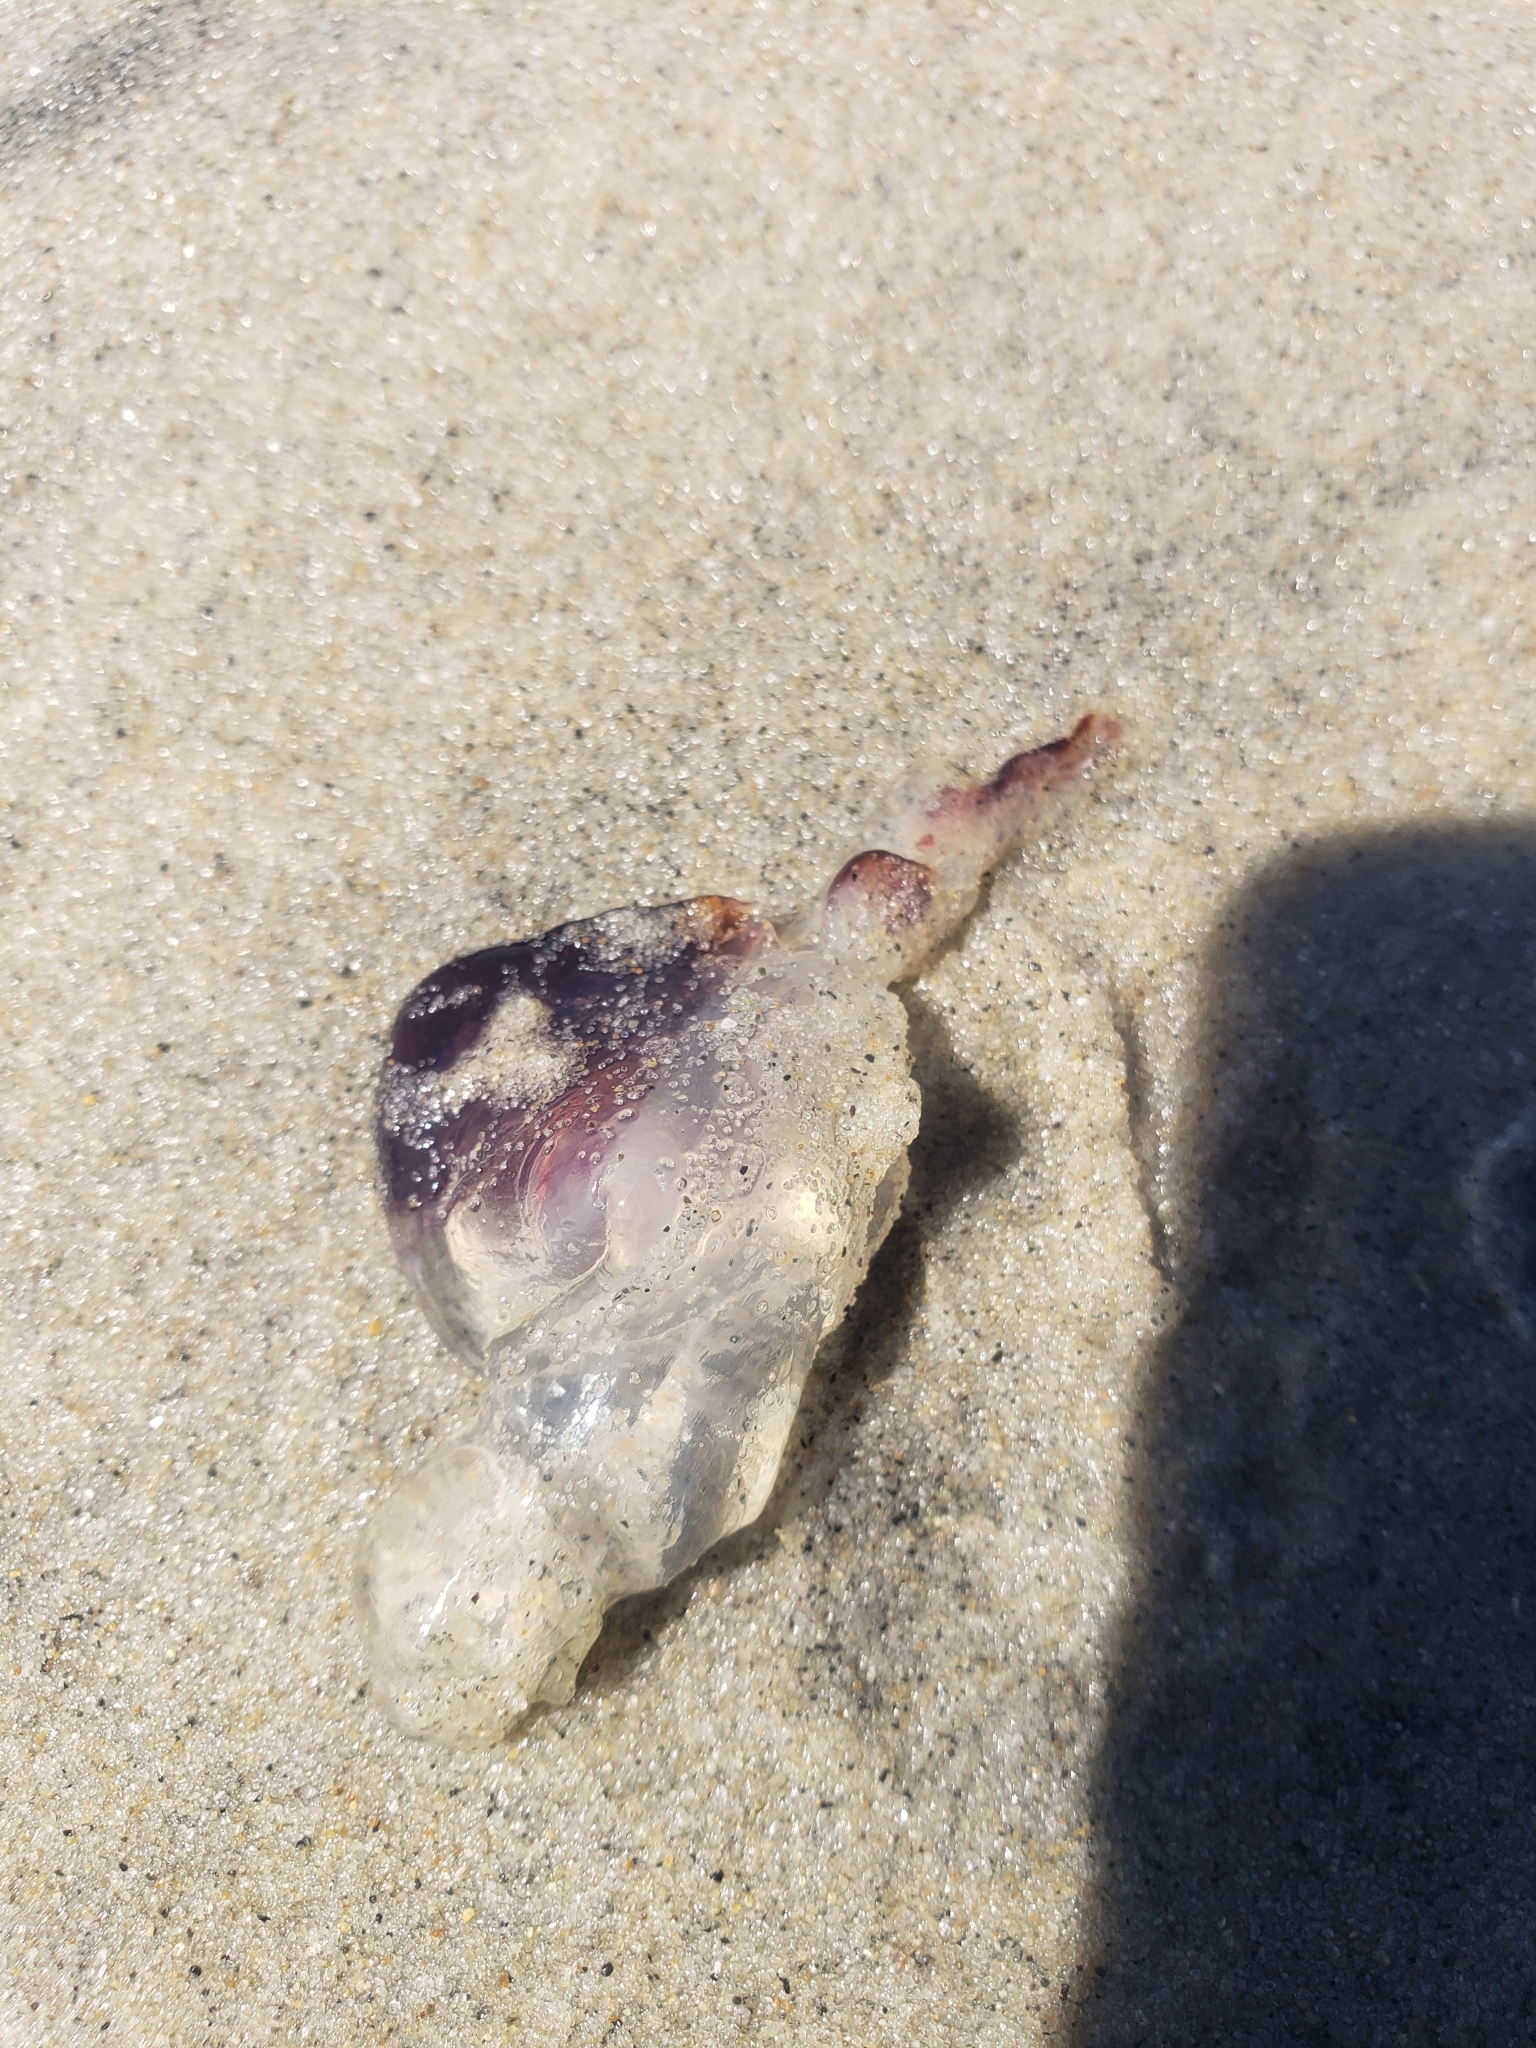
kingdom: Animalia
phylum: Cnidaria
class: Scyphozoa
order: Semaeostomeae
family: Pelagiidae
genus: Chrysaora
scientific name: Chrysaora colorata
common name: Purple-striped jellyfish
